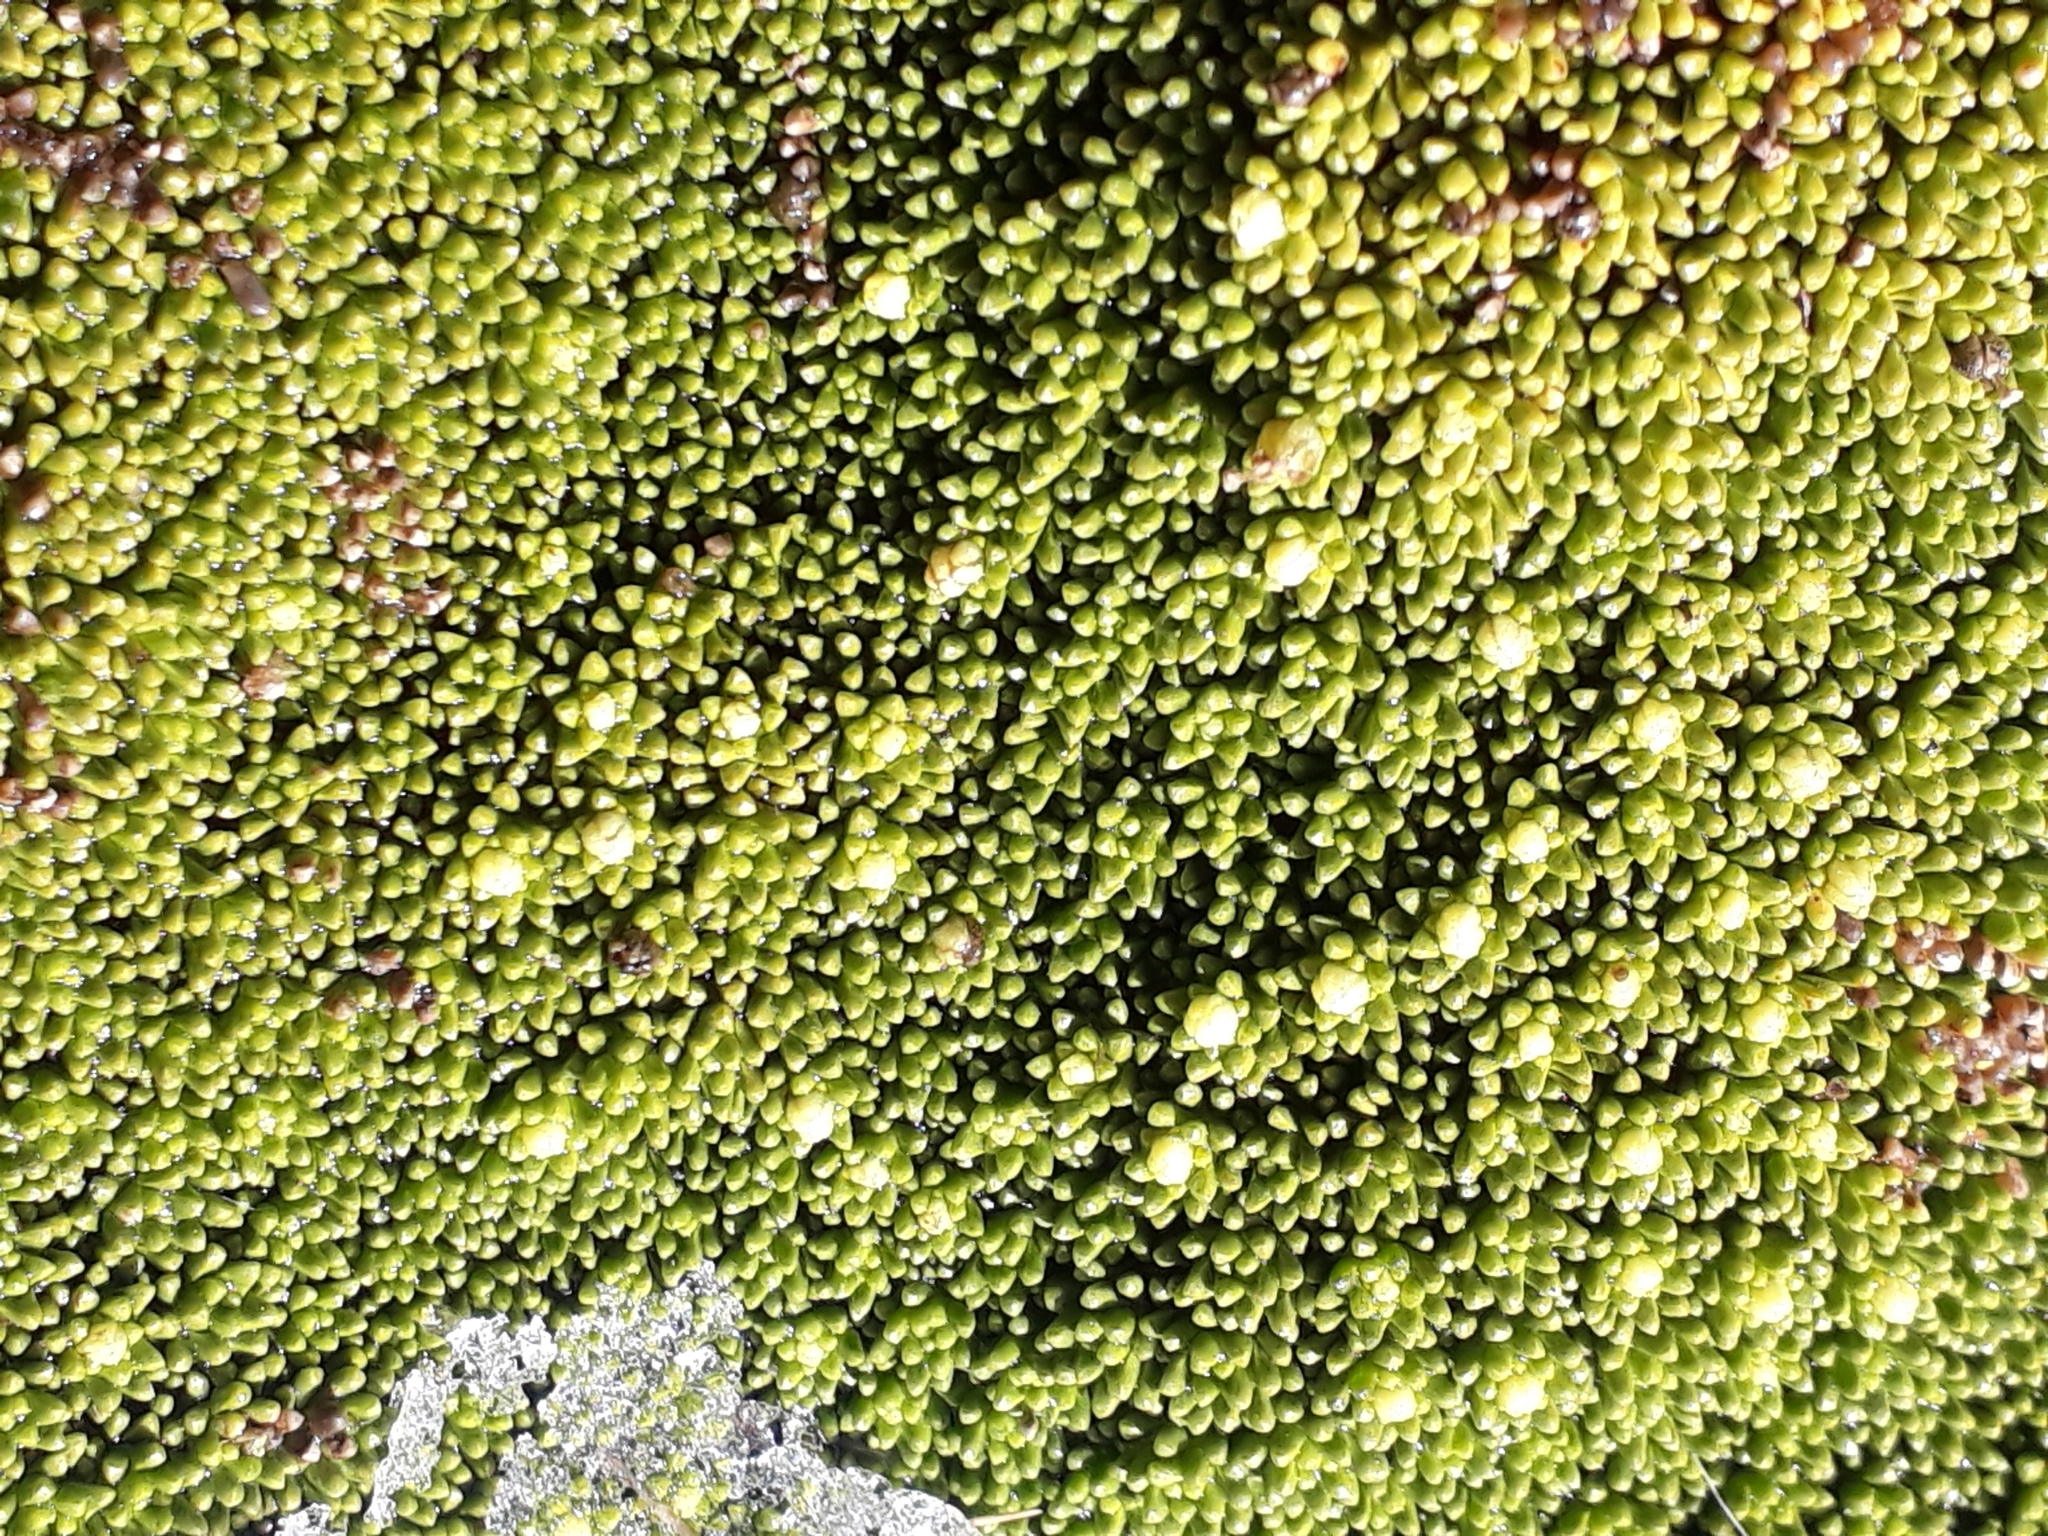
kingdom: Plantae
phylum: Tracheophyta
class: Magnoliopsida
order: Asterales
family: Stylidiaceae
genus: Phyllachne
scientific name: Phyllachne colensoi
